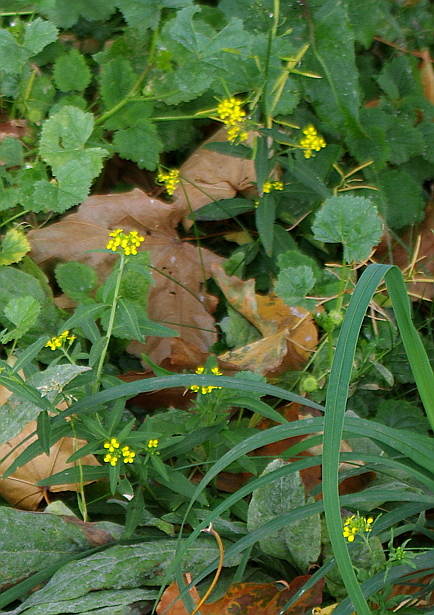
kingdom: Plantae
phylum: Tracheophyta
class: Magnoliopsida
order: Brassicales
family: Brassicaceae
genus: Erysimum
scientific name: Erysimum cheiranthoides
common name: Treacle mustard
